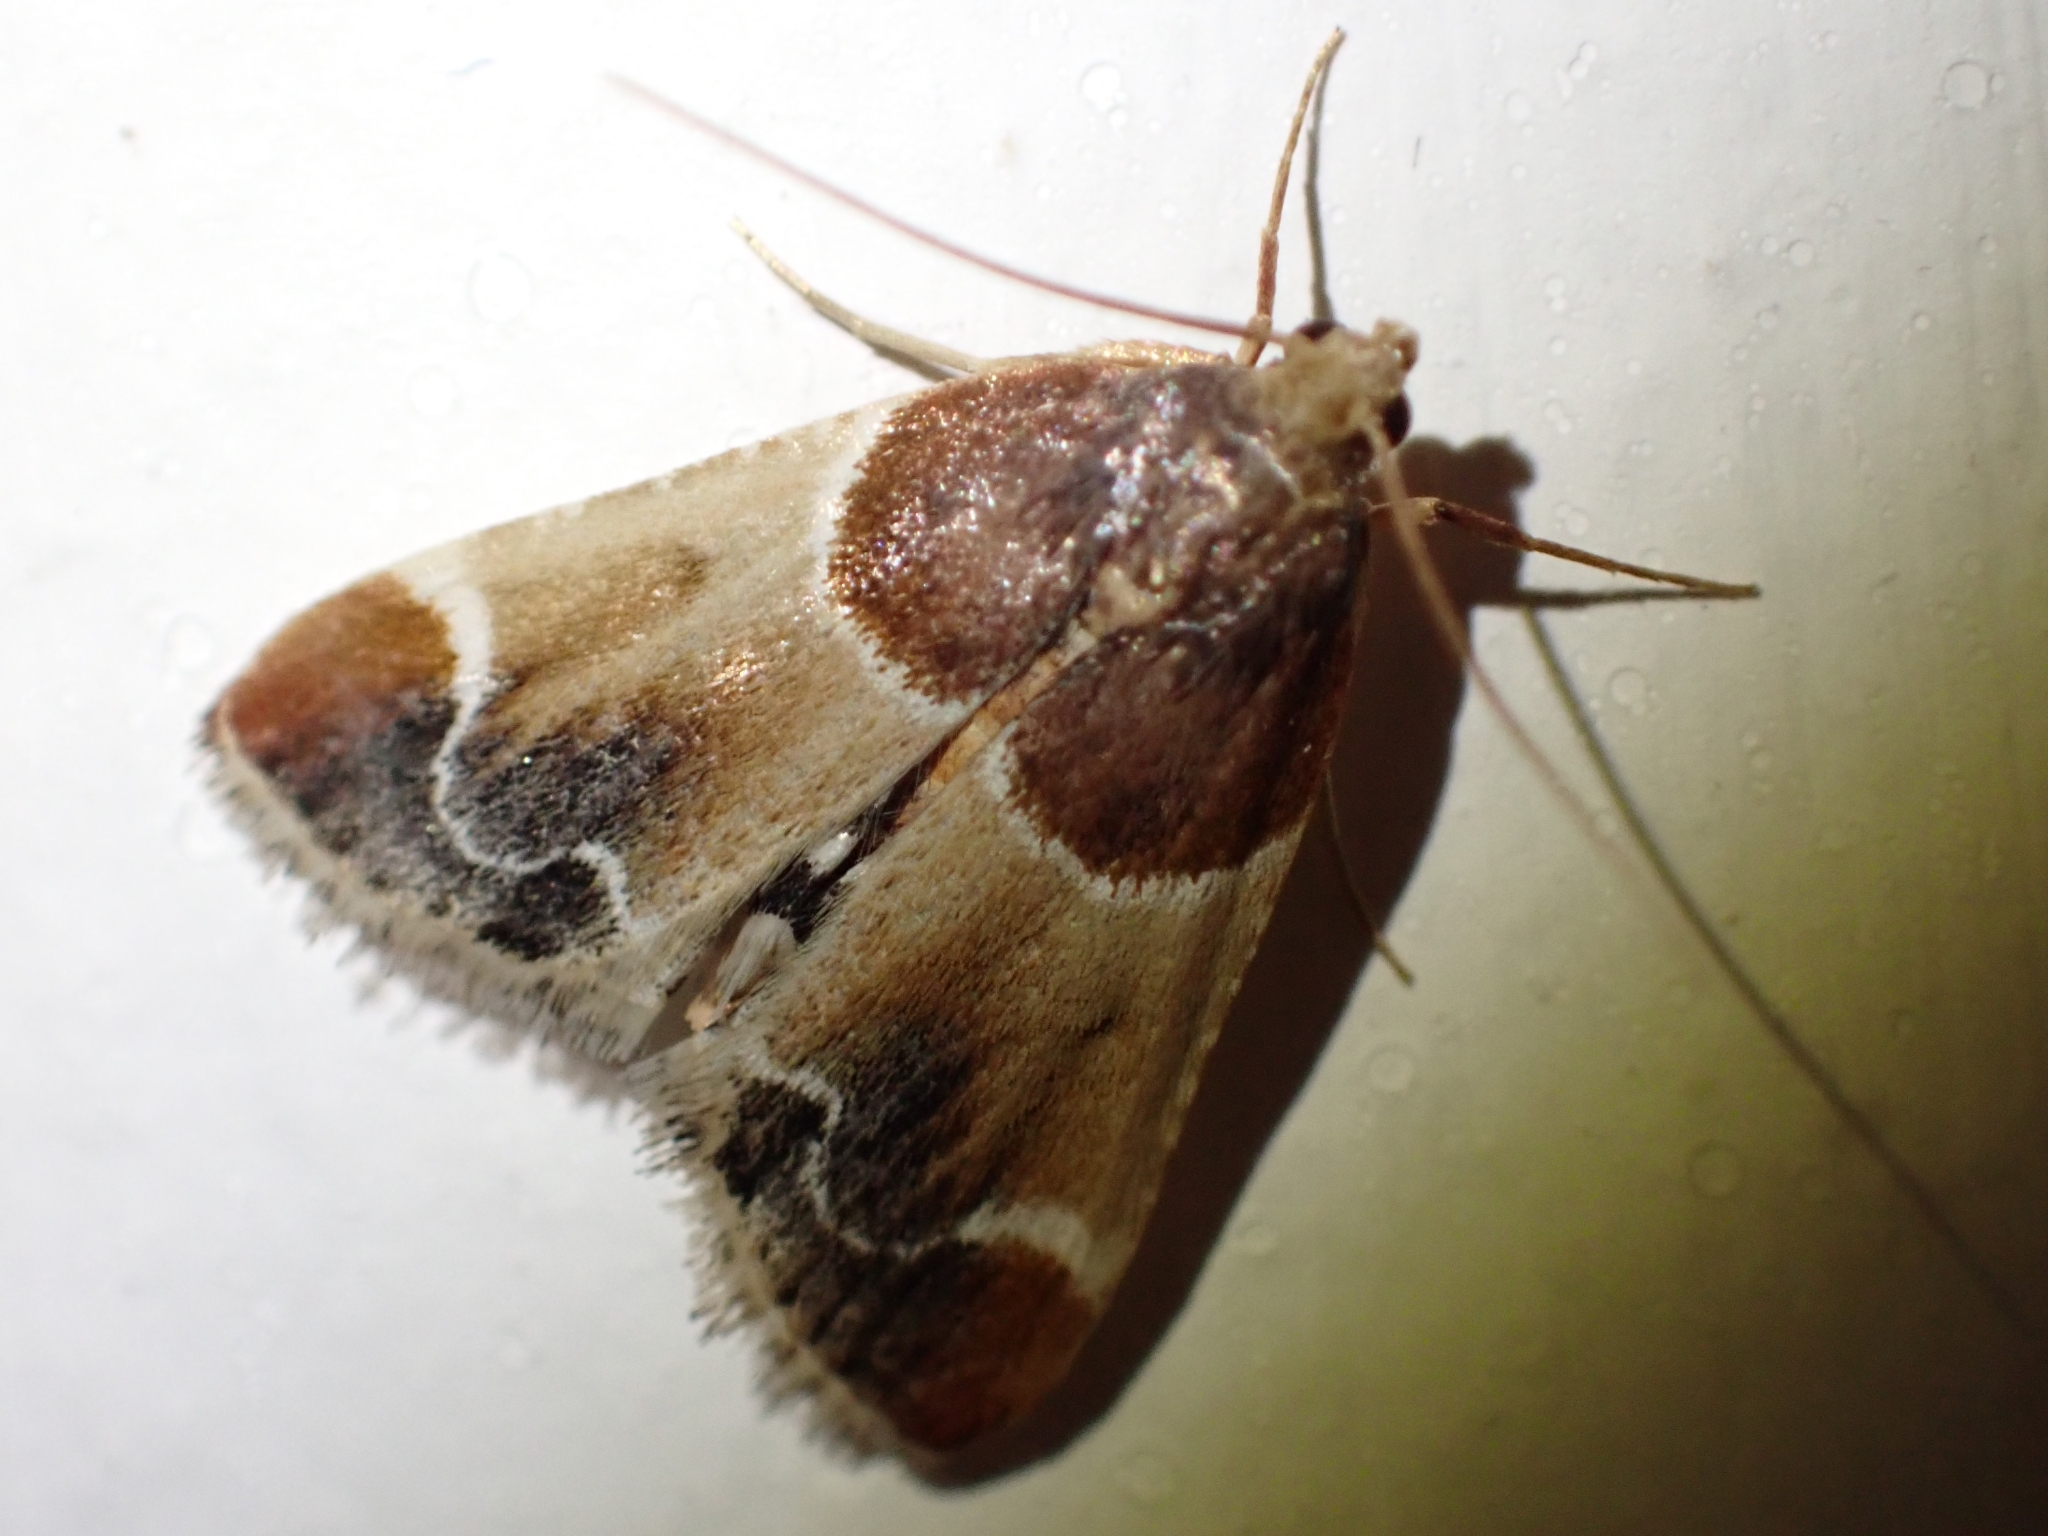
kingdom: Animalia
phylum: Arthropoda
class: Insecta
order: Lepidoptera
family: Pyralidae
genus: Pyralis
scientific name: Pyralis farinalis
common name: Meal moth
